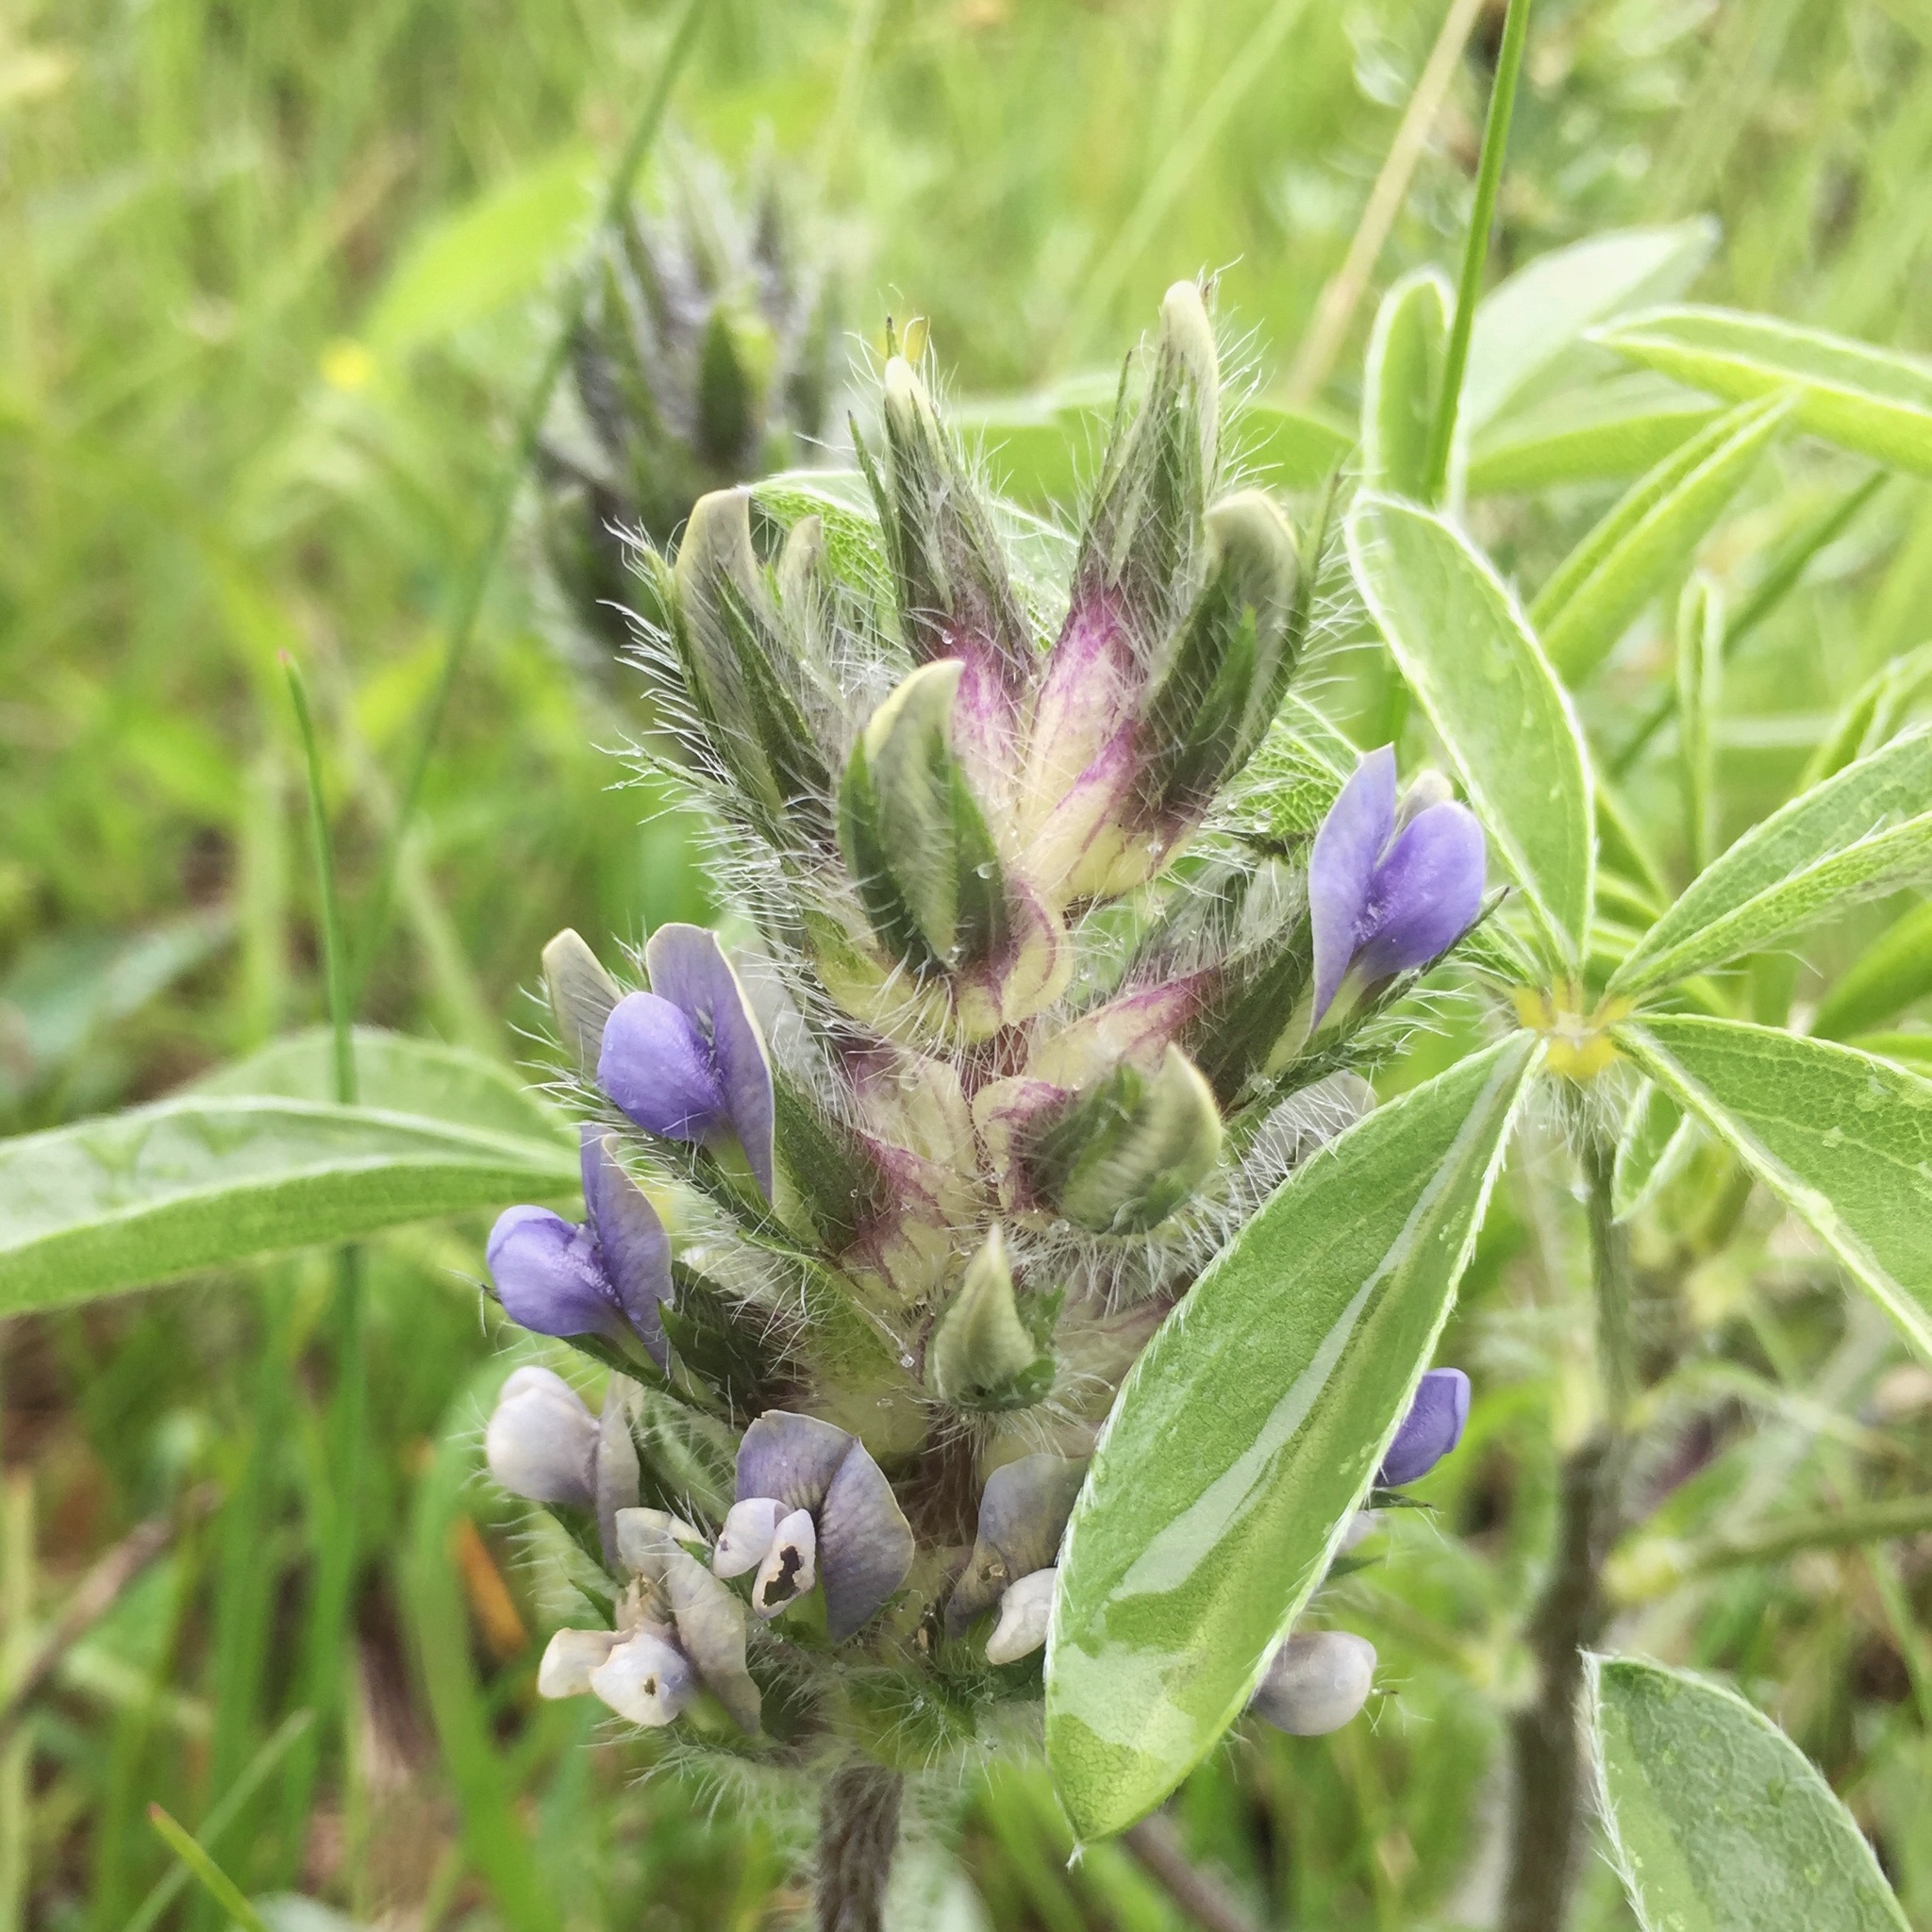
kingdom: Plantae
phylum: Tracheophyta
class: Magnoliopsida
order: Fabales
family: Fabaceae
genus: Pediomelum
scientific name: Pediomelum esculentum
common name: Indian-turnip
